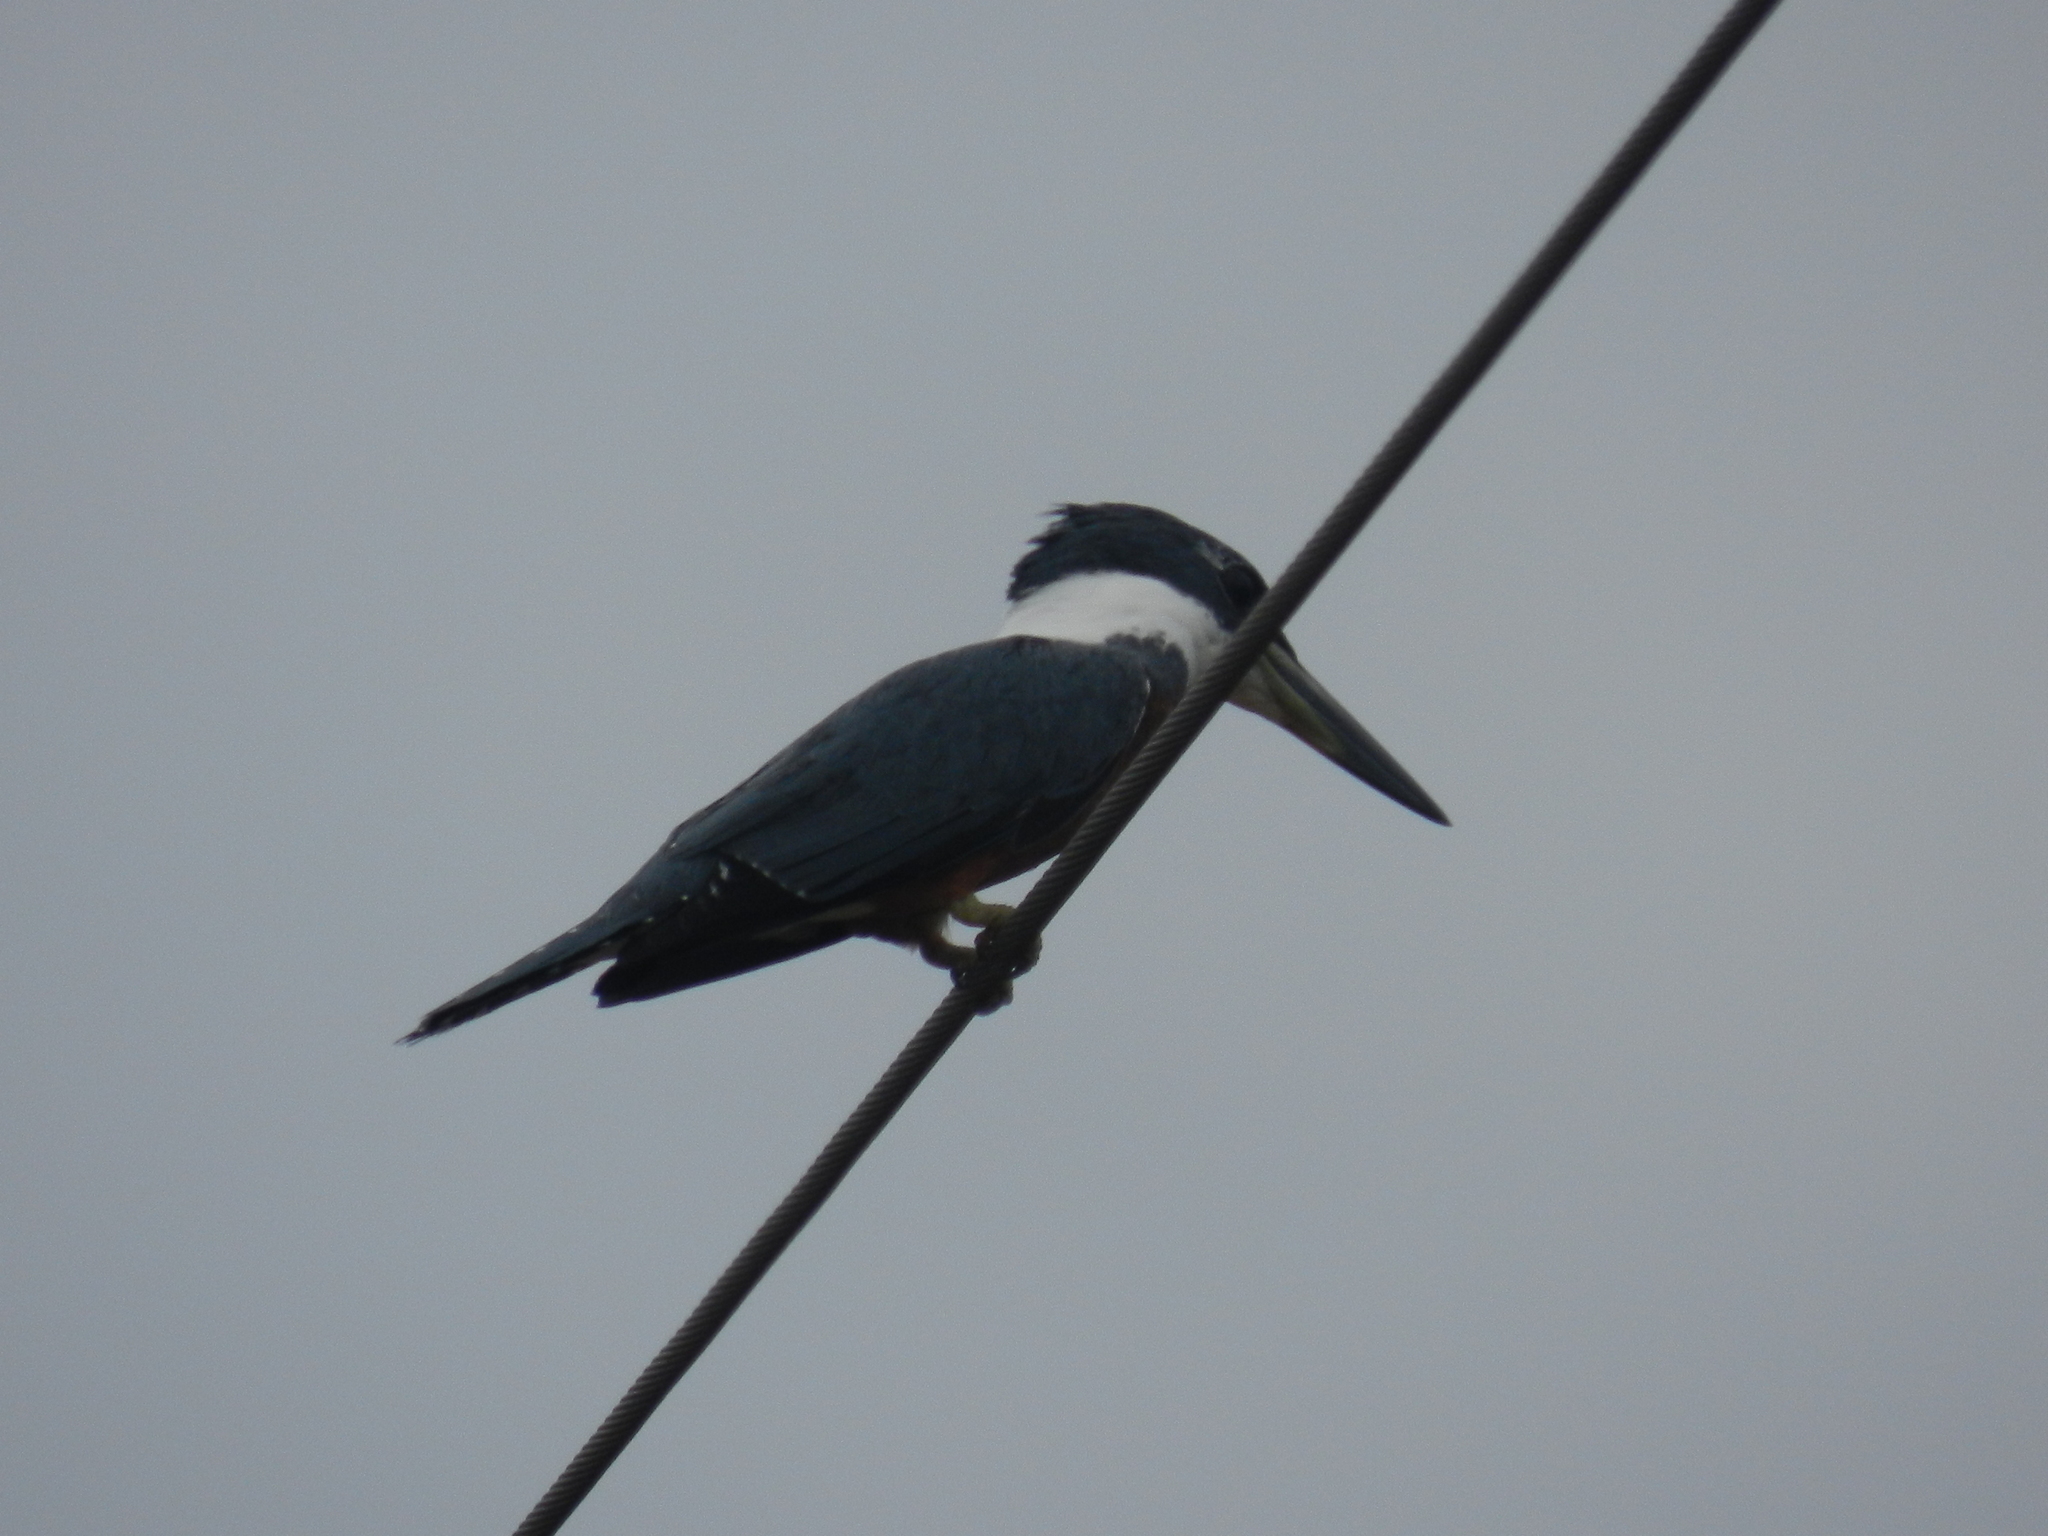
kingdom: Animalia
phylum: Chordata
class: Aves
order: Coraciiformes
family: Alcedinidae
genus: Megaceryle
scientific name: Megaceryle torquata
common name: Ringed kingfisher
